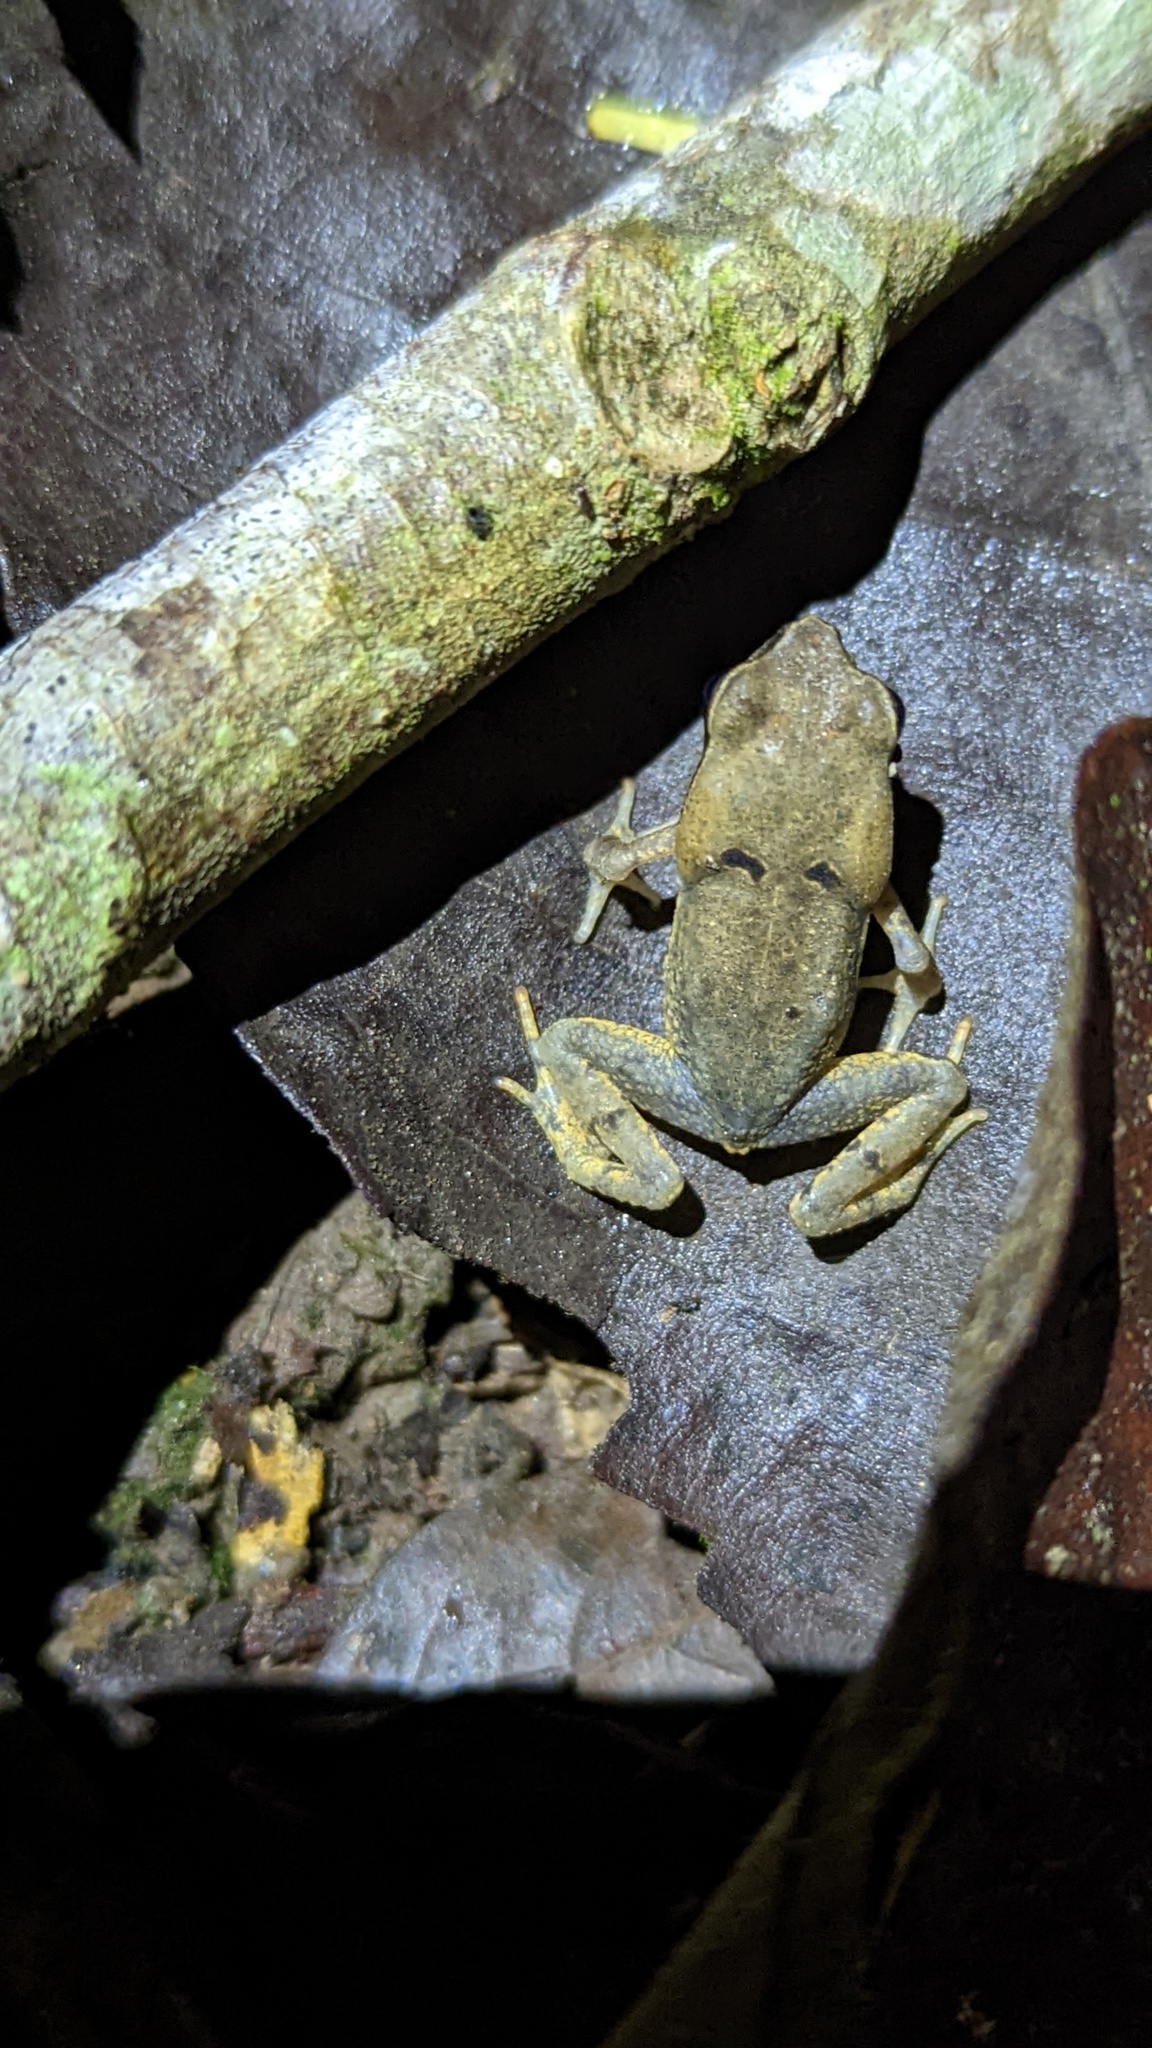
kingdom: Animalia
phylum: Chordata
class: Amphibia
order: Anura
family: Bufonidae
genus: Rhaebo
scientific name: Rhaebo haematiticus
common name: Truando toad
